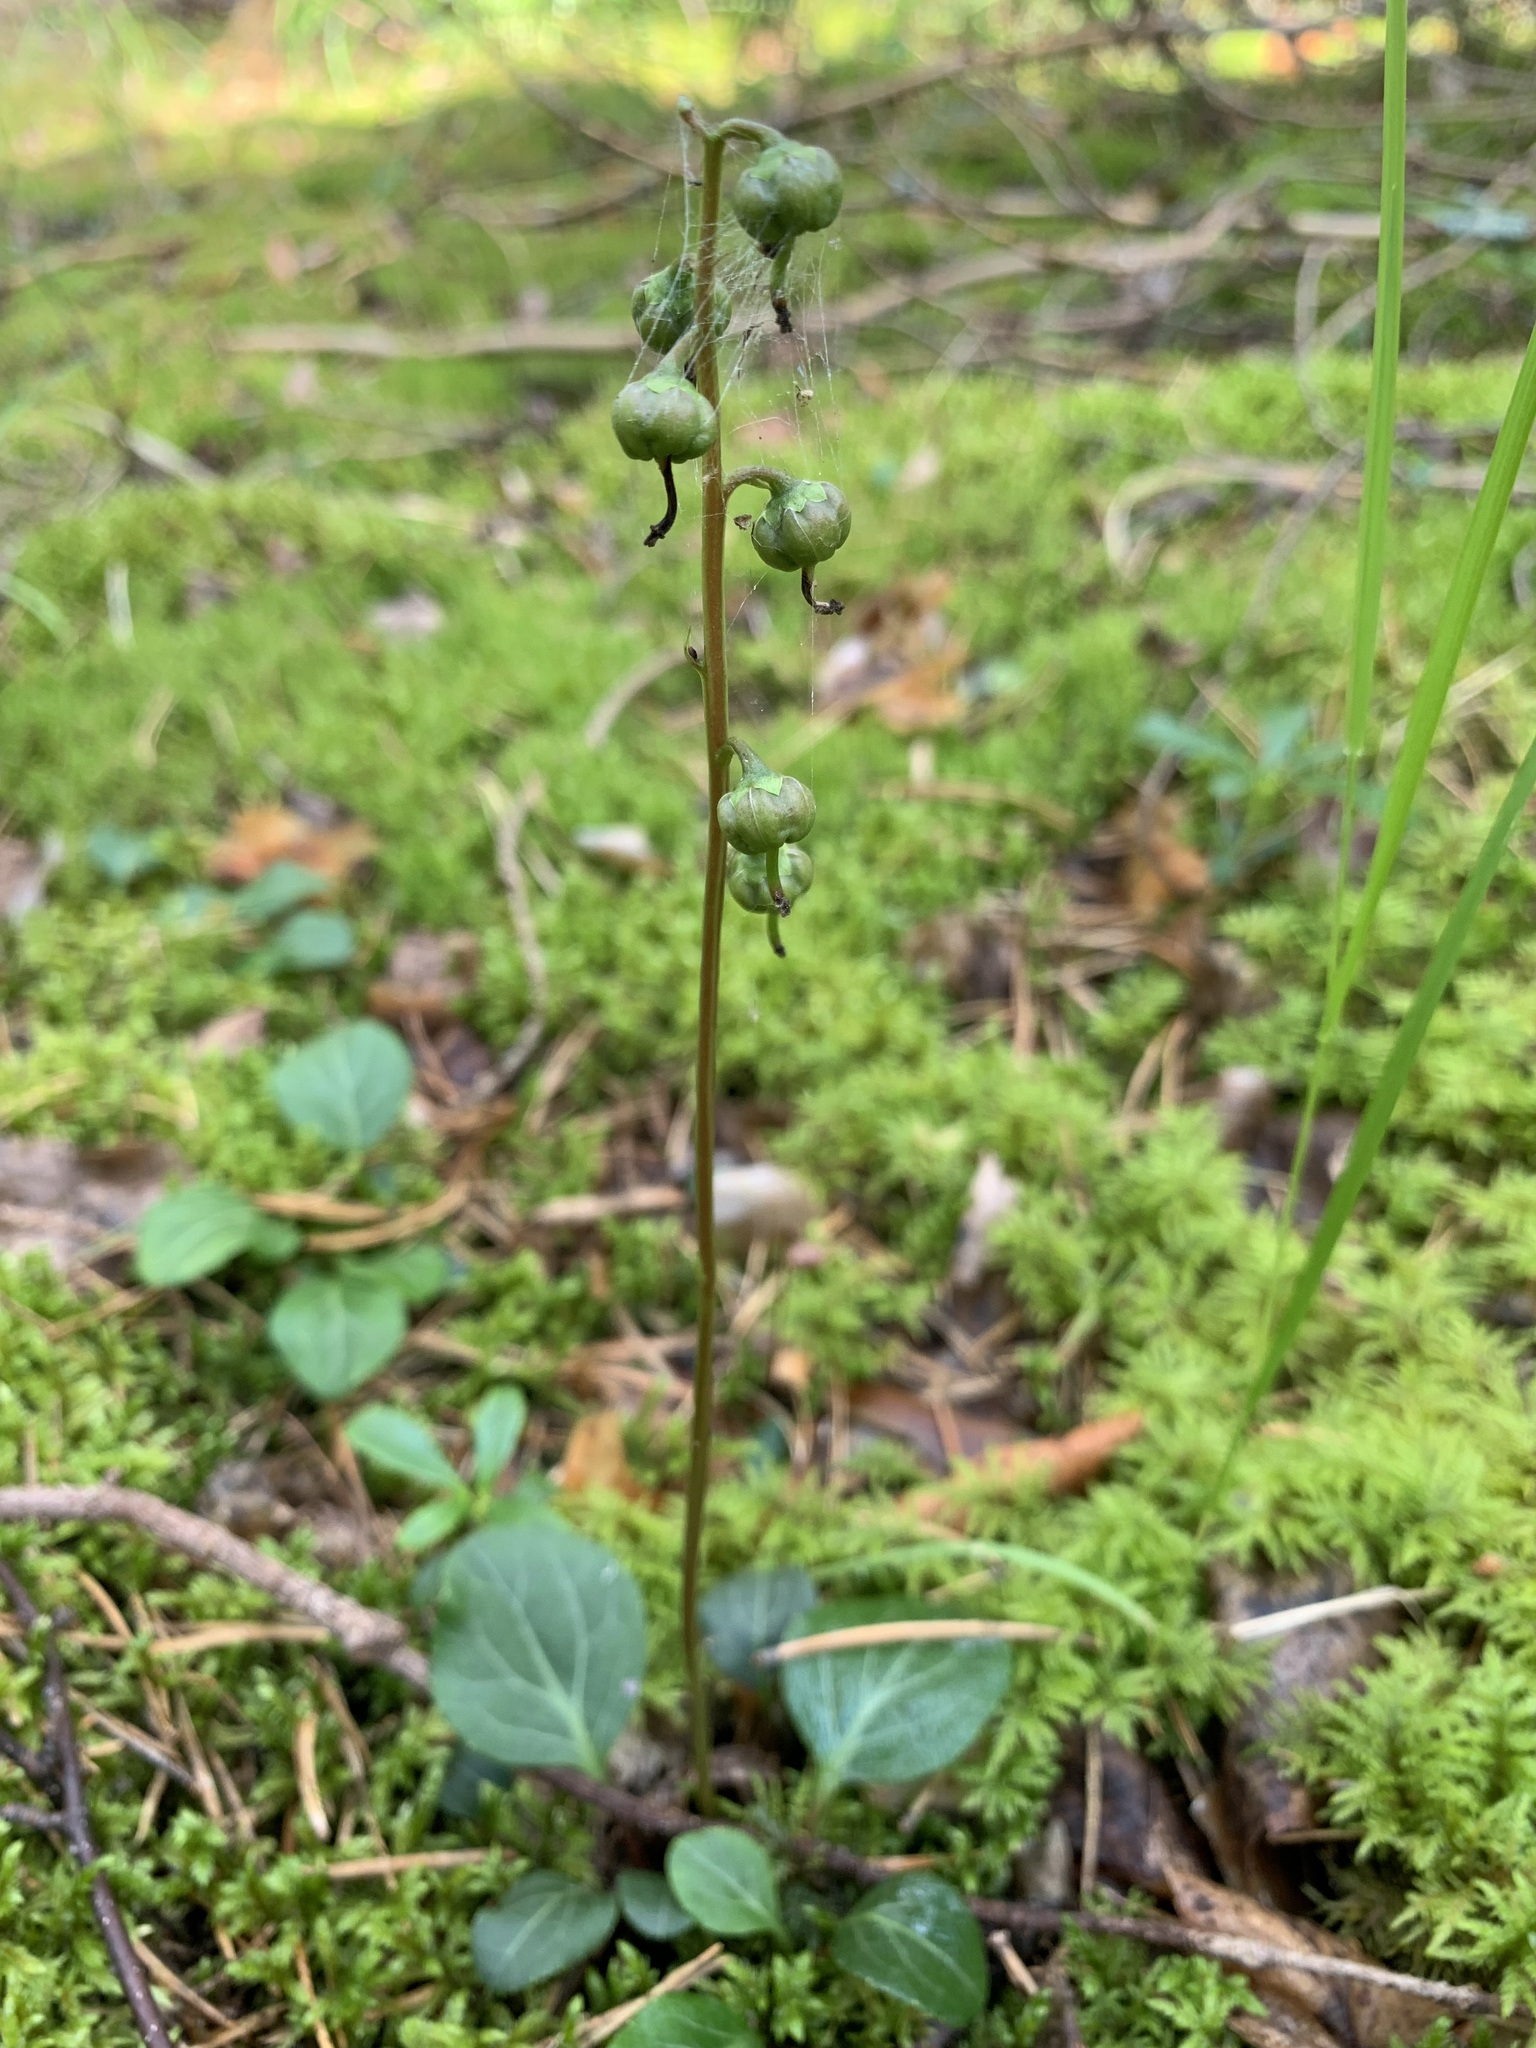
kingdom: Plantae
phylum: Tracheophyta
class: Magnoliopsida
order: Ericales
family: Ericaceae
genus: Pyrola
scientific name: Pyrola chlorantha
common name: Green wintergreen
